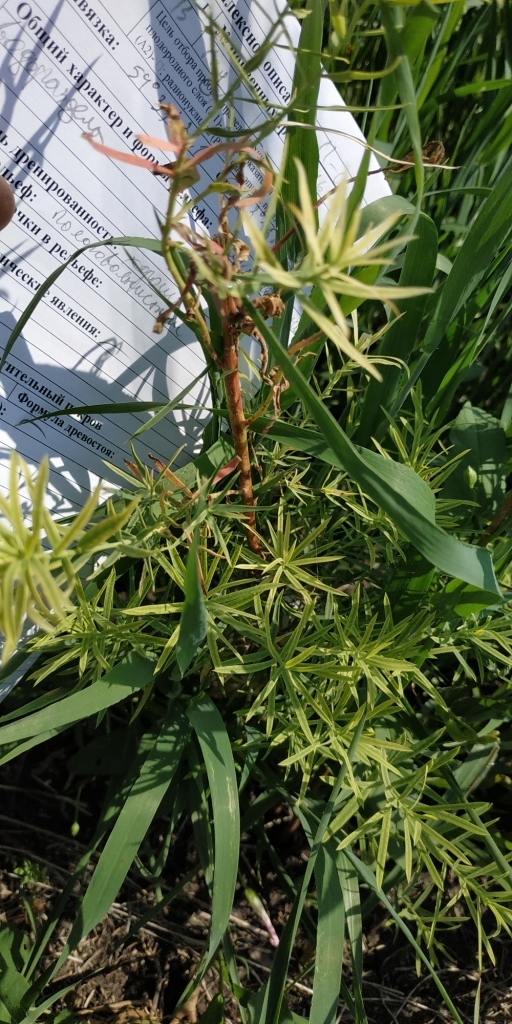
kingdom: Plantae
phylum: Tracheophyta
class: Magnoliopsida
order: Malpighiales
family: Euphorbiaceae
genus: Euphorbia
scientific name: Euphorbia virgata
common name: Leafy spurge
